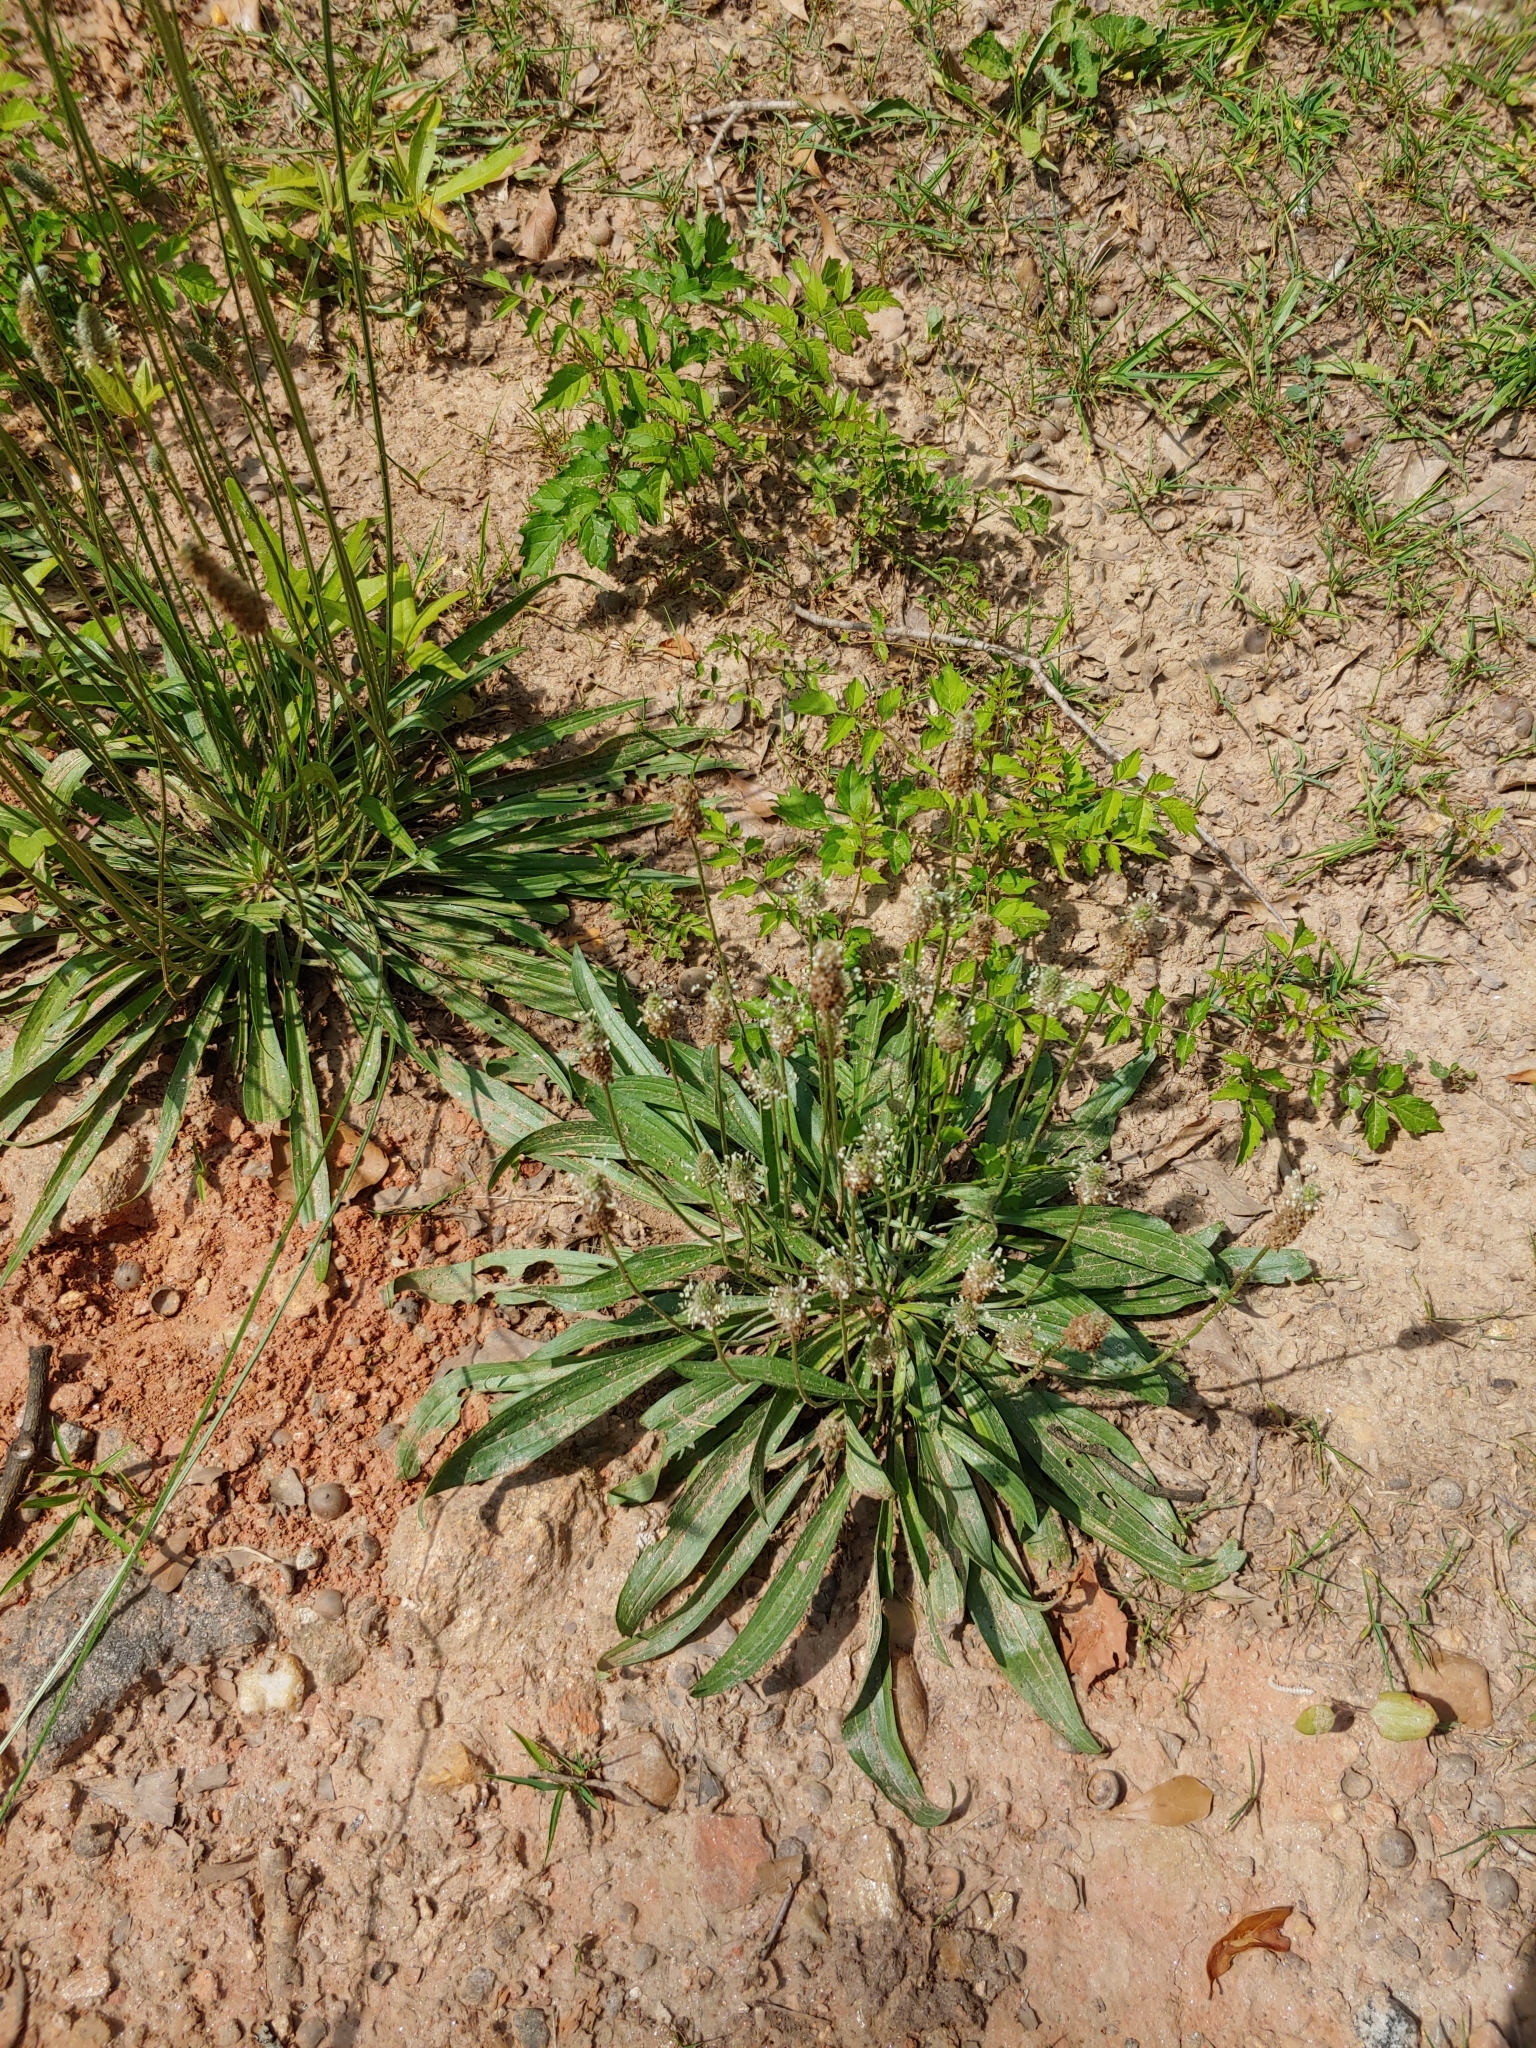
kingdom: Plantae
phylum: Tracheophyta
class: Magnoliopsida
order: Lamiales
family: Plantaginaceae
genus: Plantago
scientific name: Plantago lanceolata
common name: Ribwort plantain
